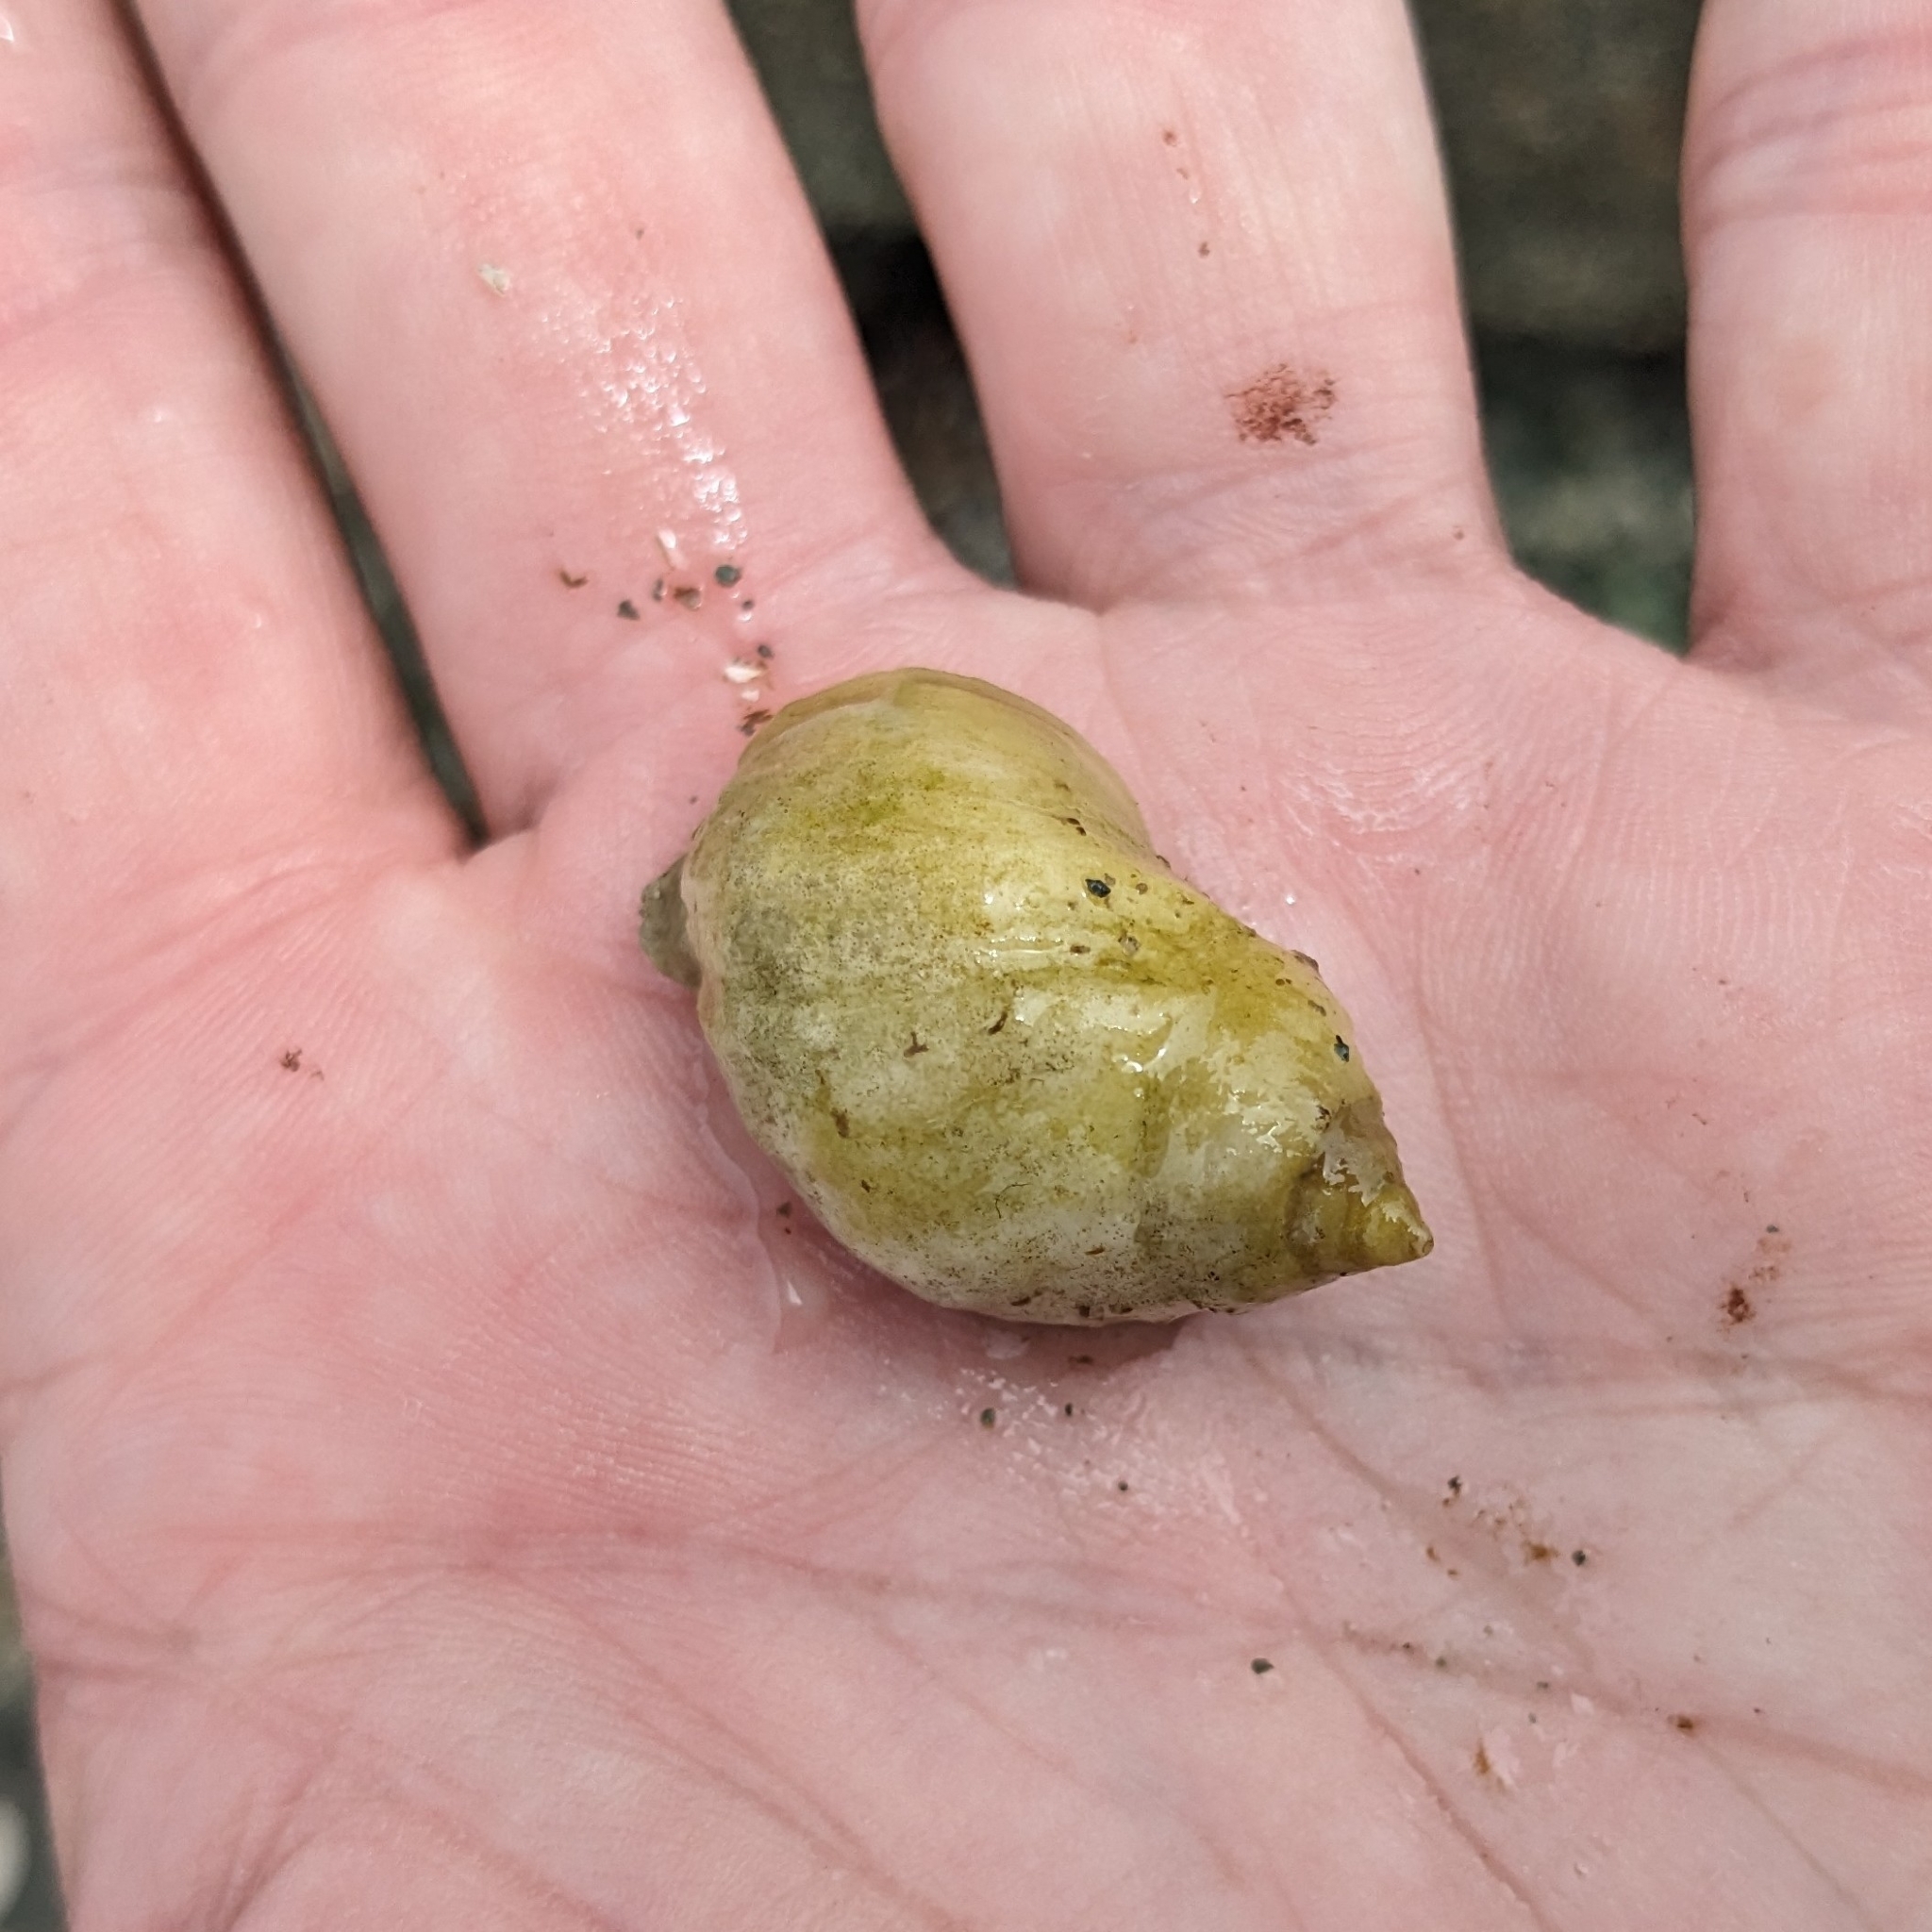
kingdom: Animalia
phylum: Mollusca
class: Gastropoda
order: Neogastropoda
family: Muricidae
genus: Nucella
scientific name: Nucella lapillus
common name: Dog whelk
